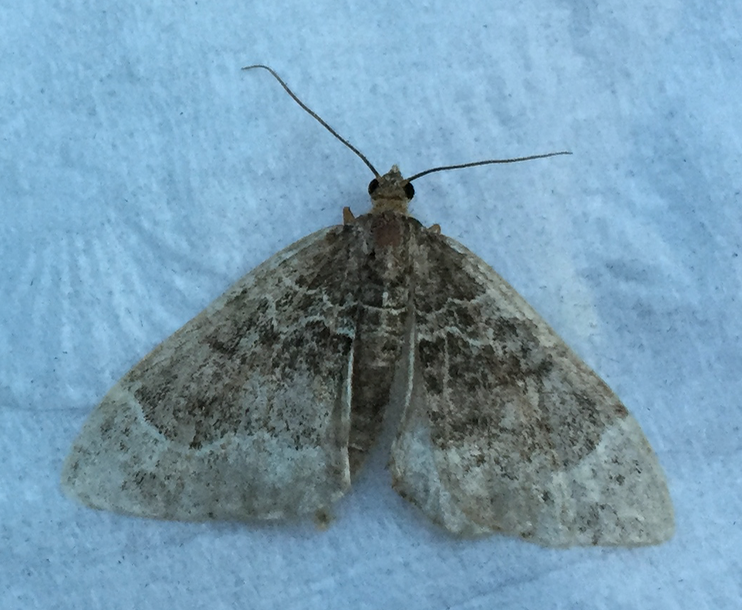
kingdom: Animalia
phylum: Arthropoda
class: Insecta
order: Lepidoptera
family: Geometridae
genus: Ecliptopera
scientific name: Ecliptopera silaceata
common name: Small phoenix
